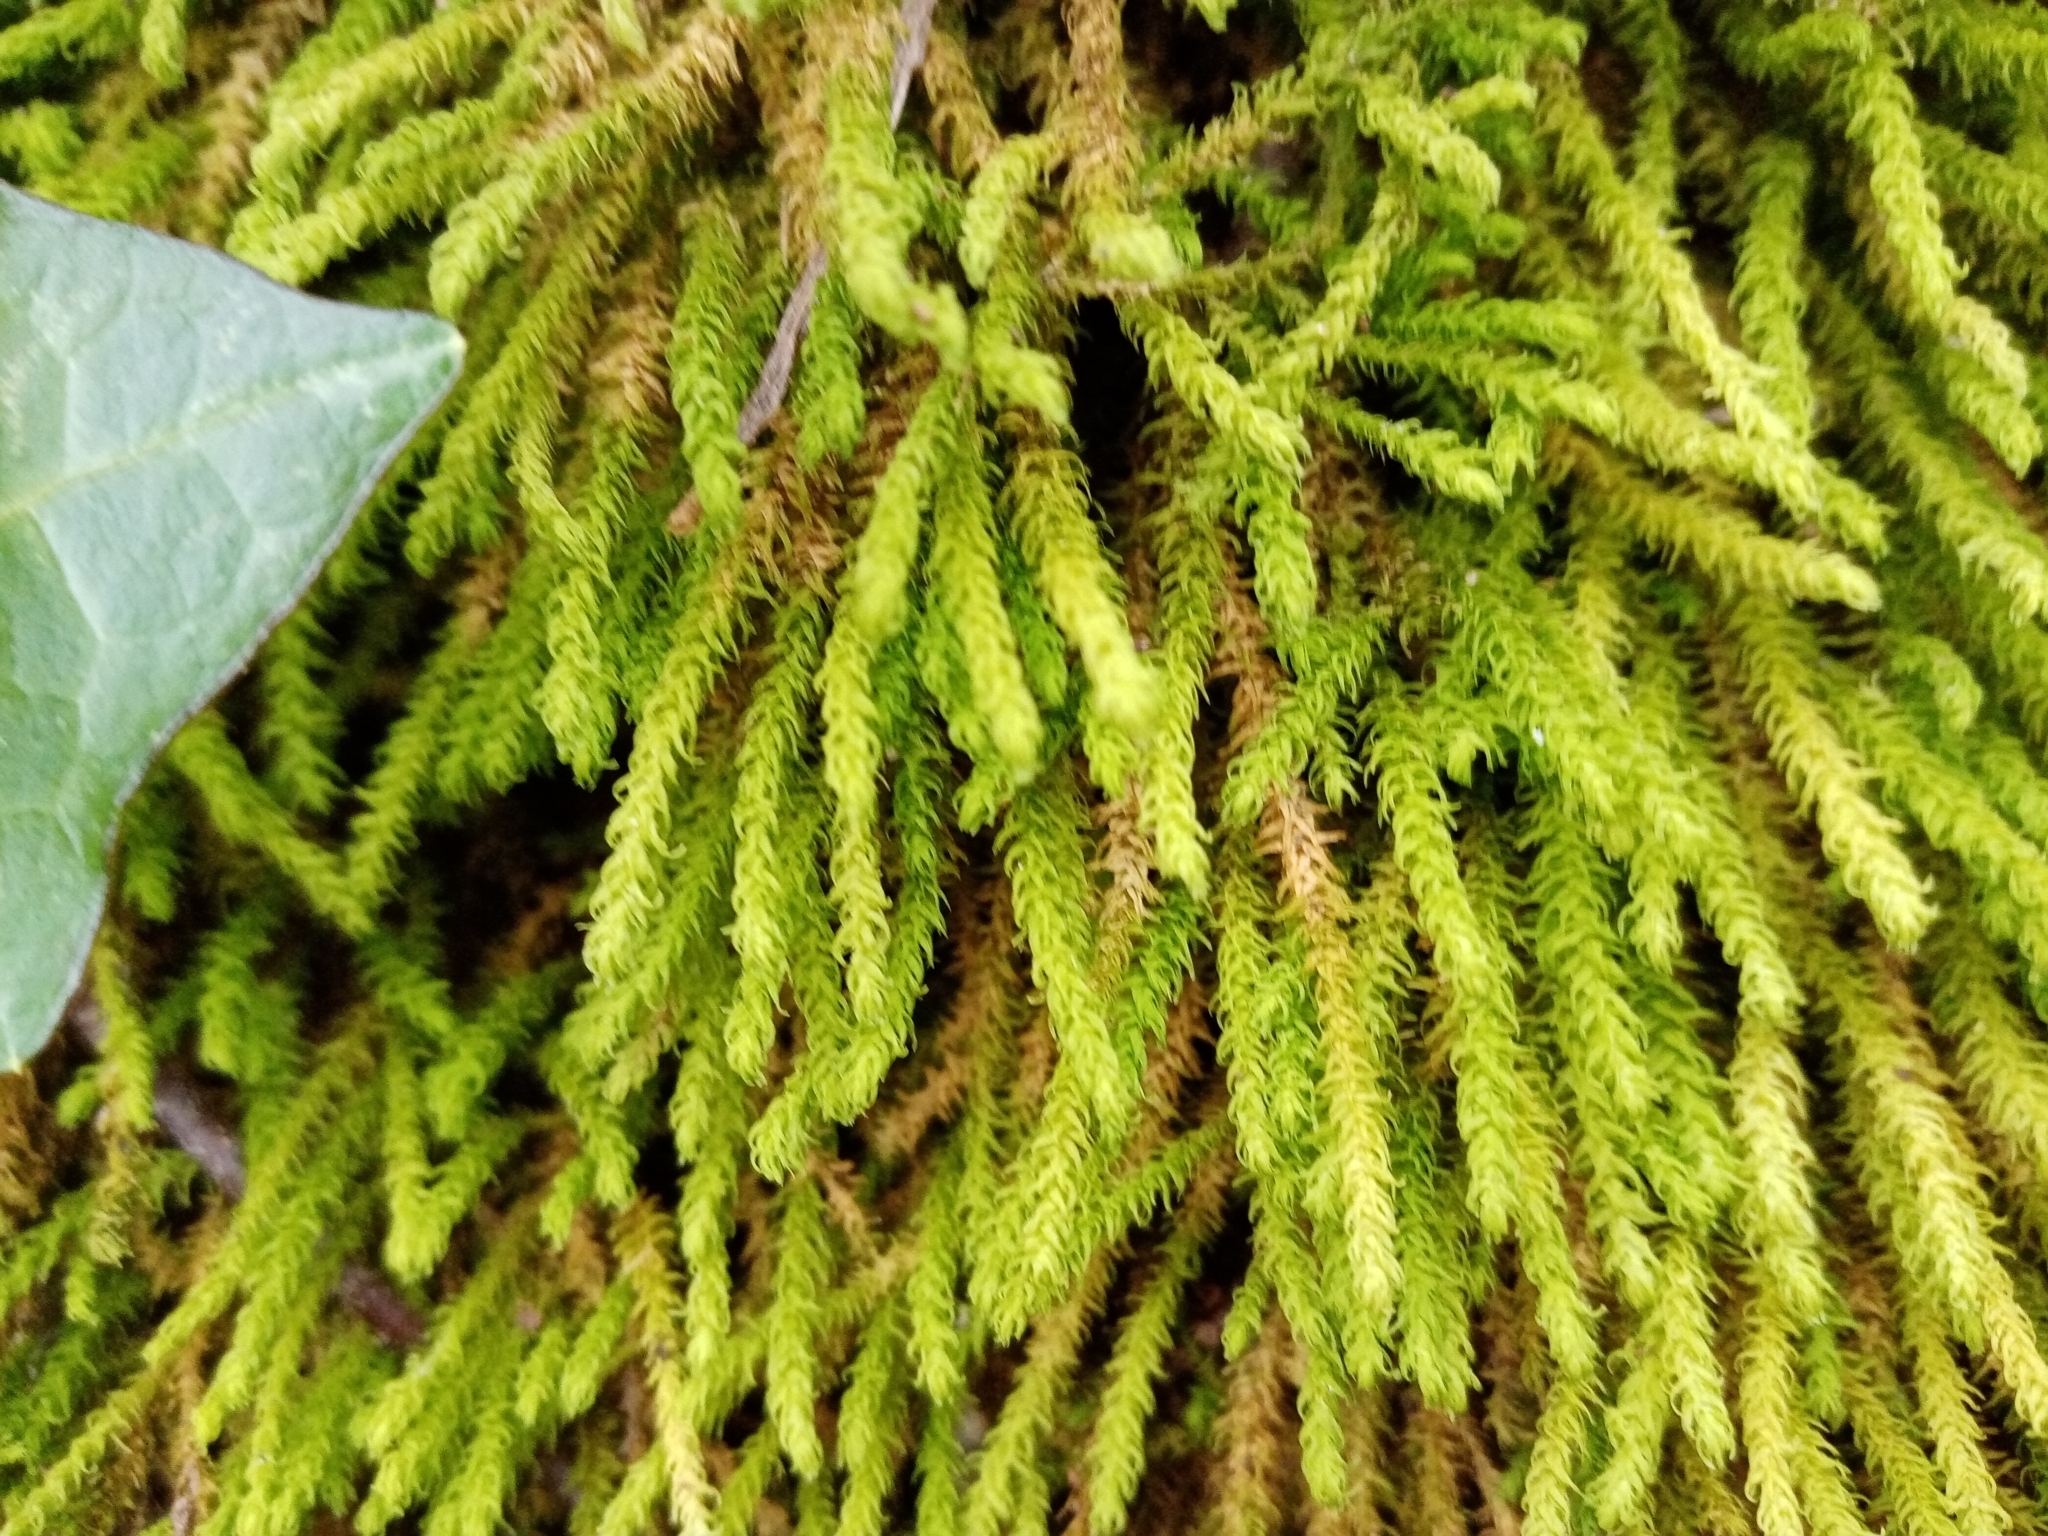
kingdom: Plantae
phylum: Bryophyta
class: Bryopsida
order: Hypnales
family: Anomodontaceae
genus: Anomodon
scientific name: Anomodon viticulosus
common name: Tall anomodon
